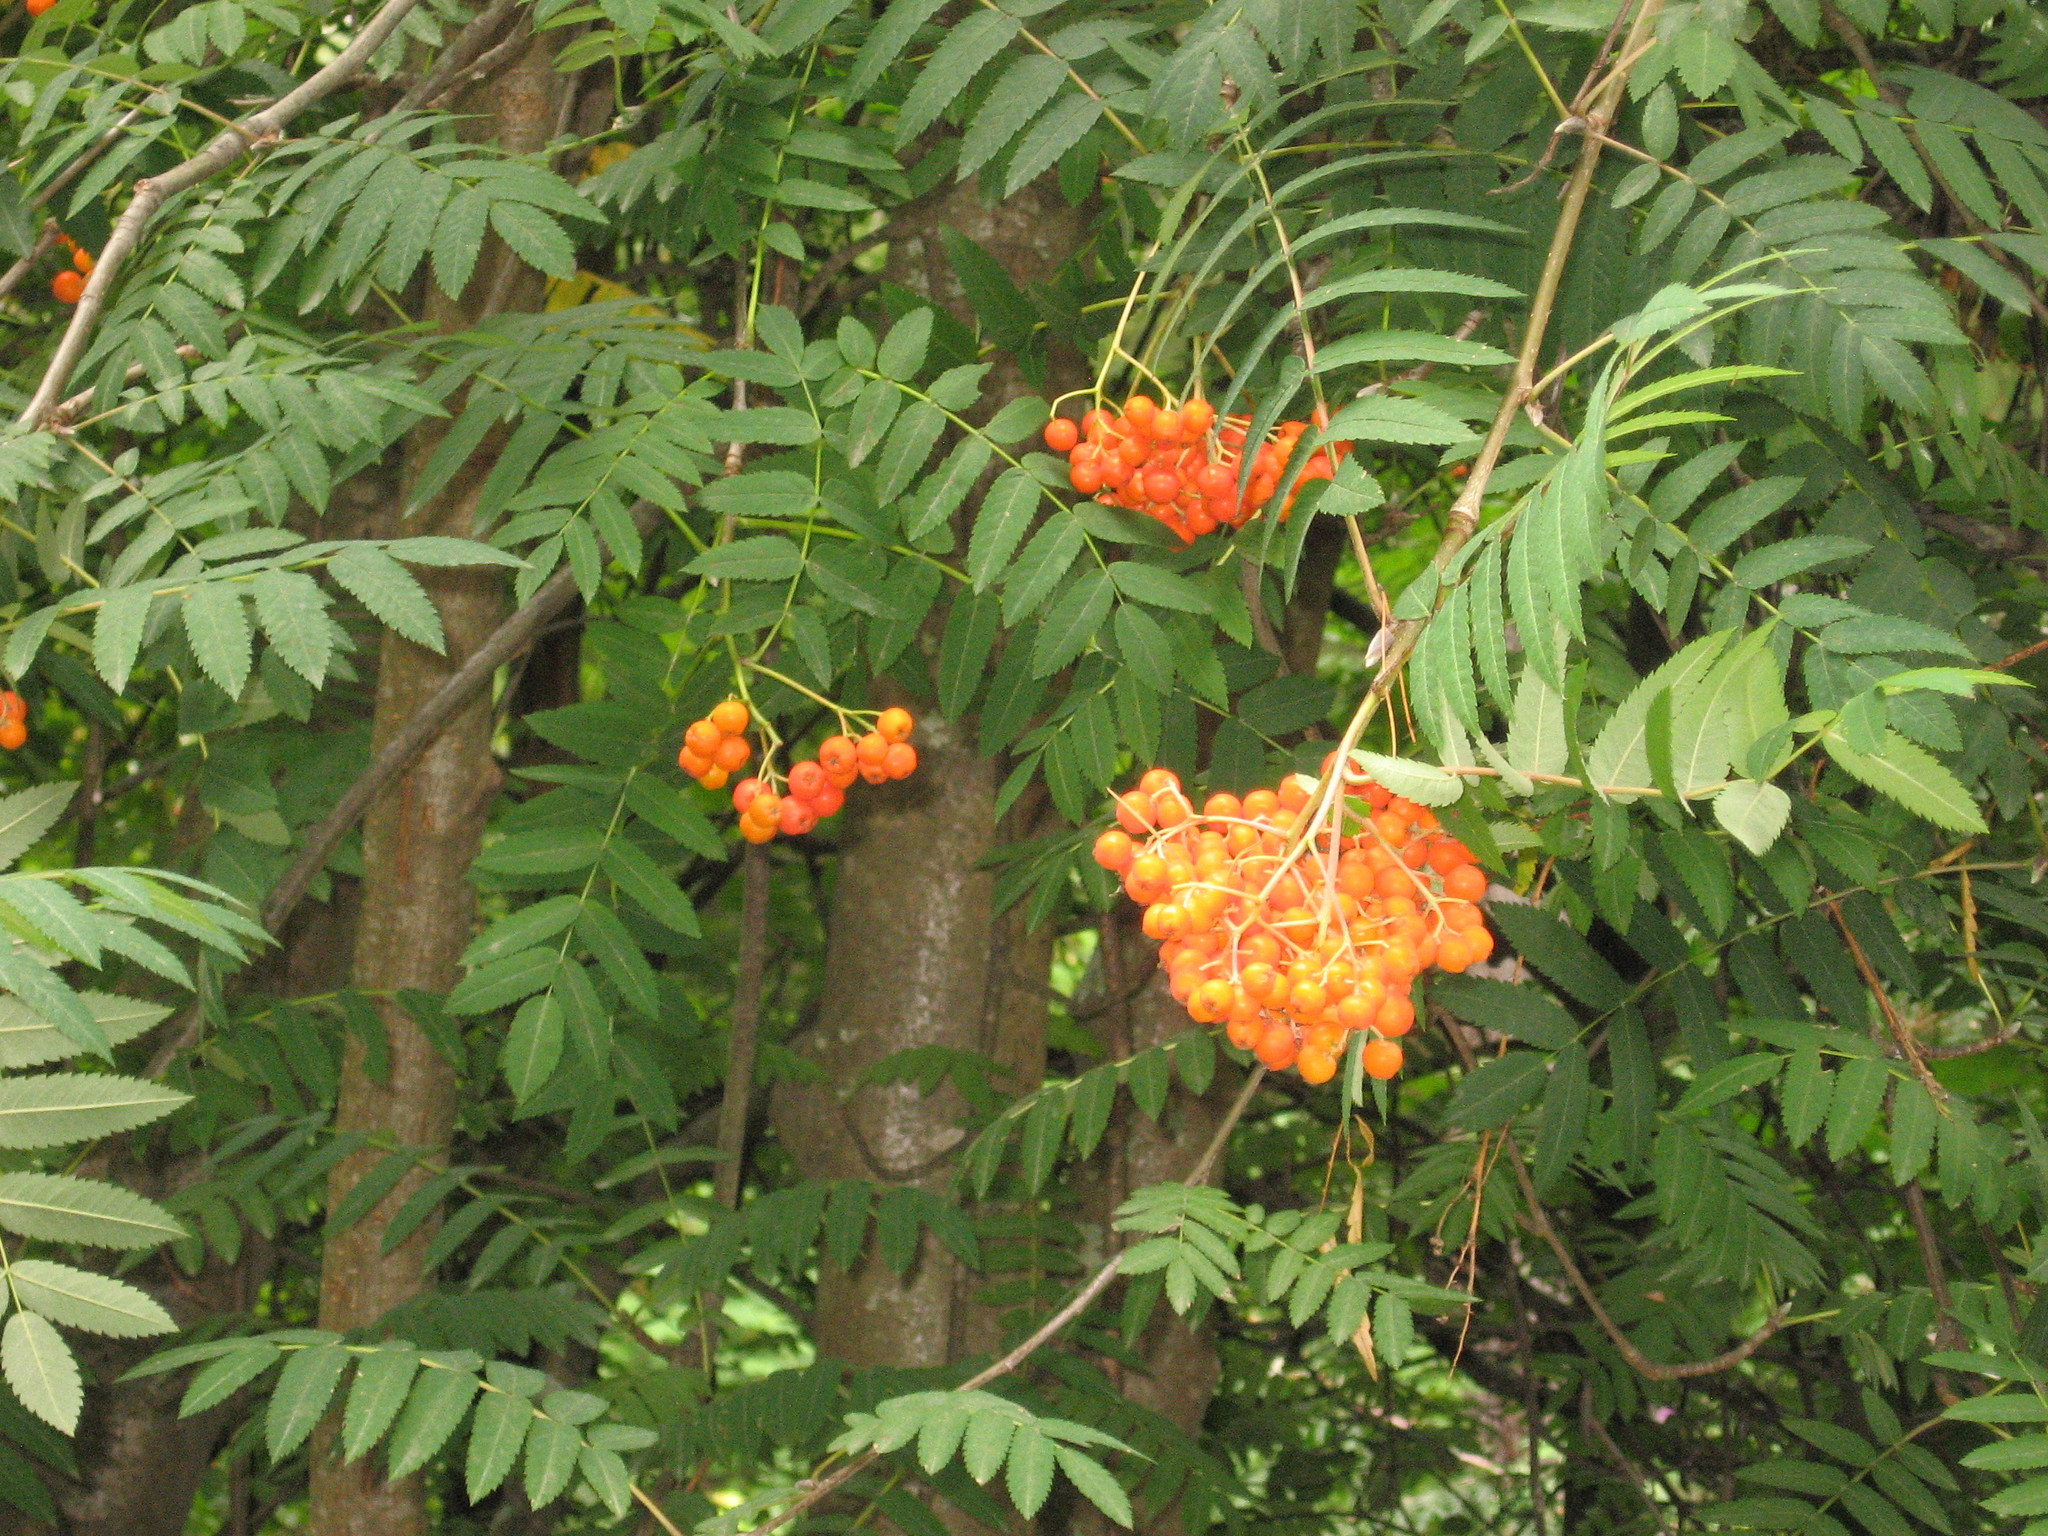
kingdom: Plantae
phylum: Tracheophyta
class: Magnoliopsida
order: Rosales
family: Rosaceae
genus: Sorbus
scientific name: Sorbus aucuparia
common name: Rowan
